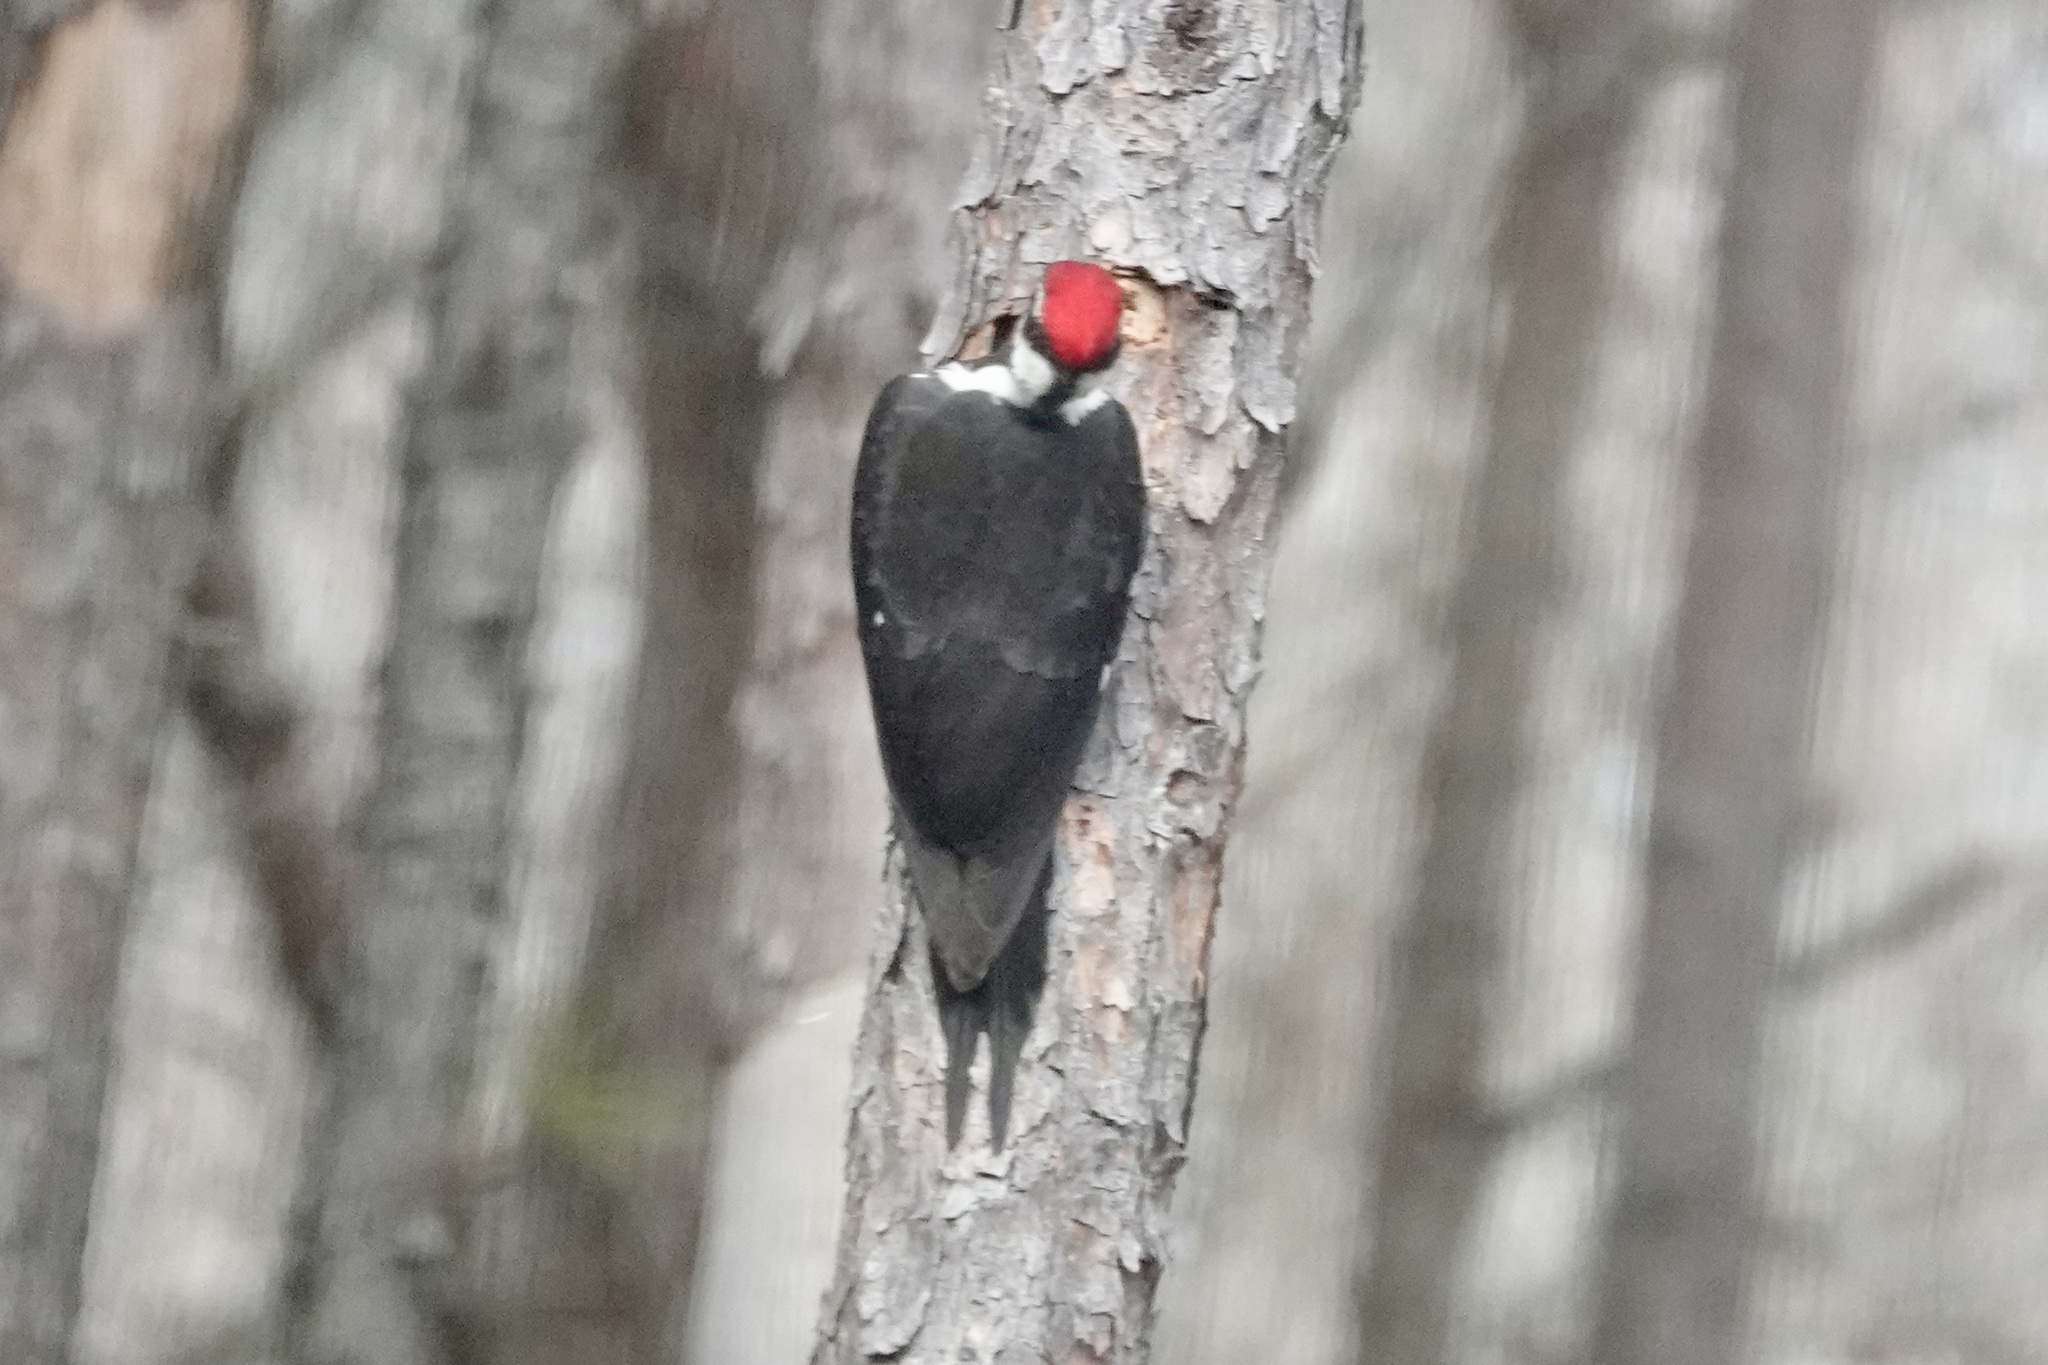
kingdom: Animalia
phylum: Chordata
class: Aves
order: Piciformes
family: Picidae
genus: Dryocopus
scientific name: Dryocopus pileatus
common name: Pileated woodpecker
